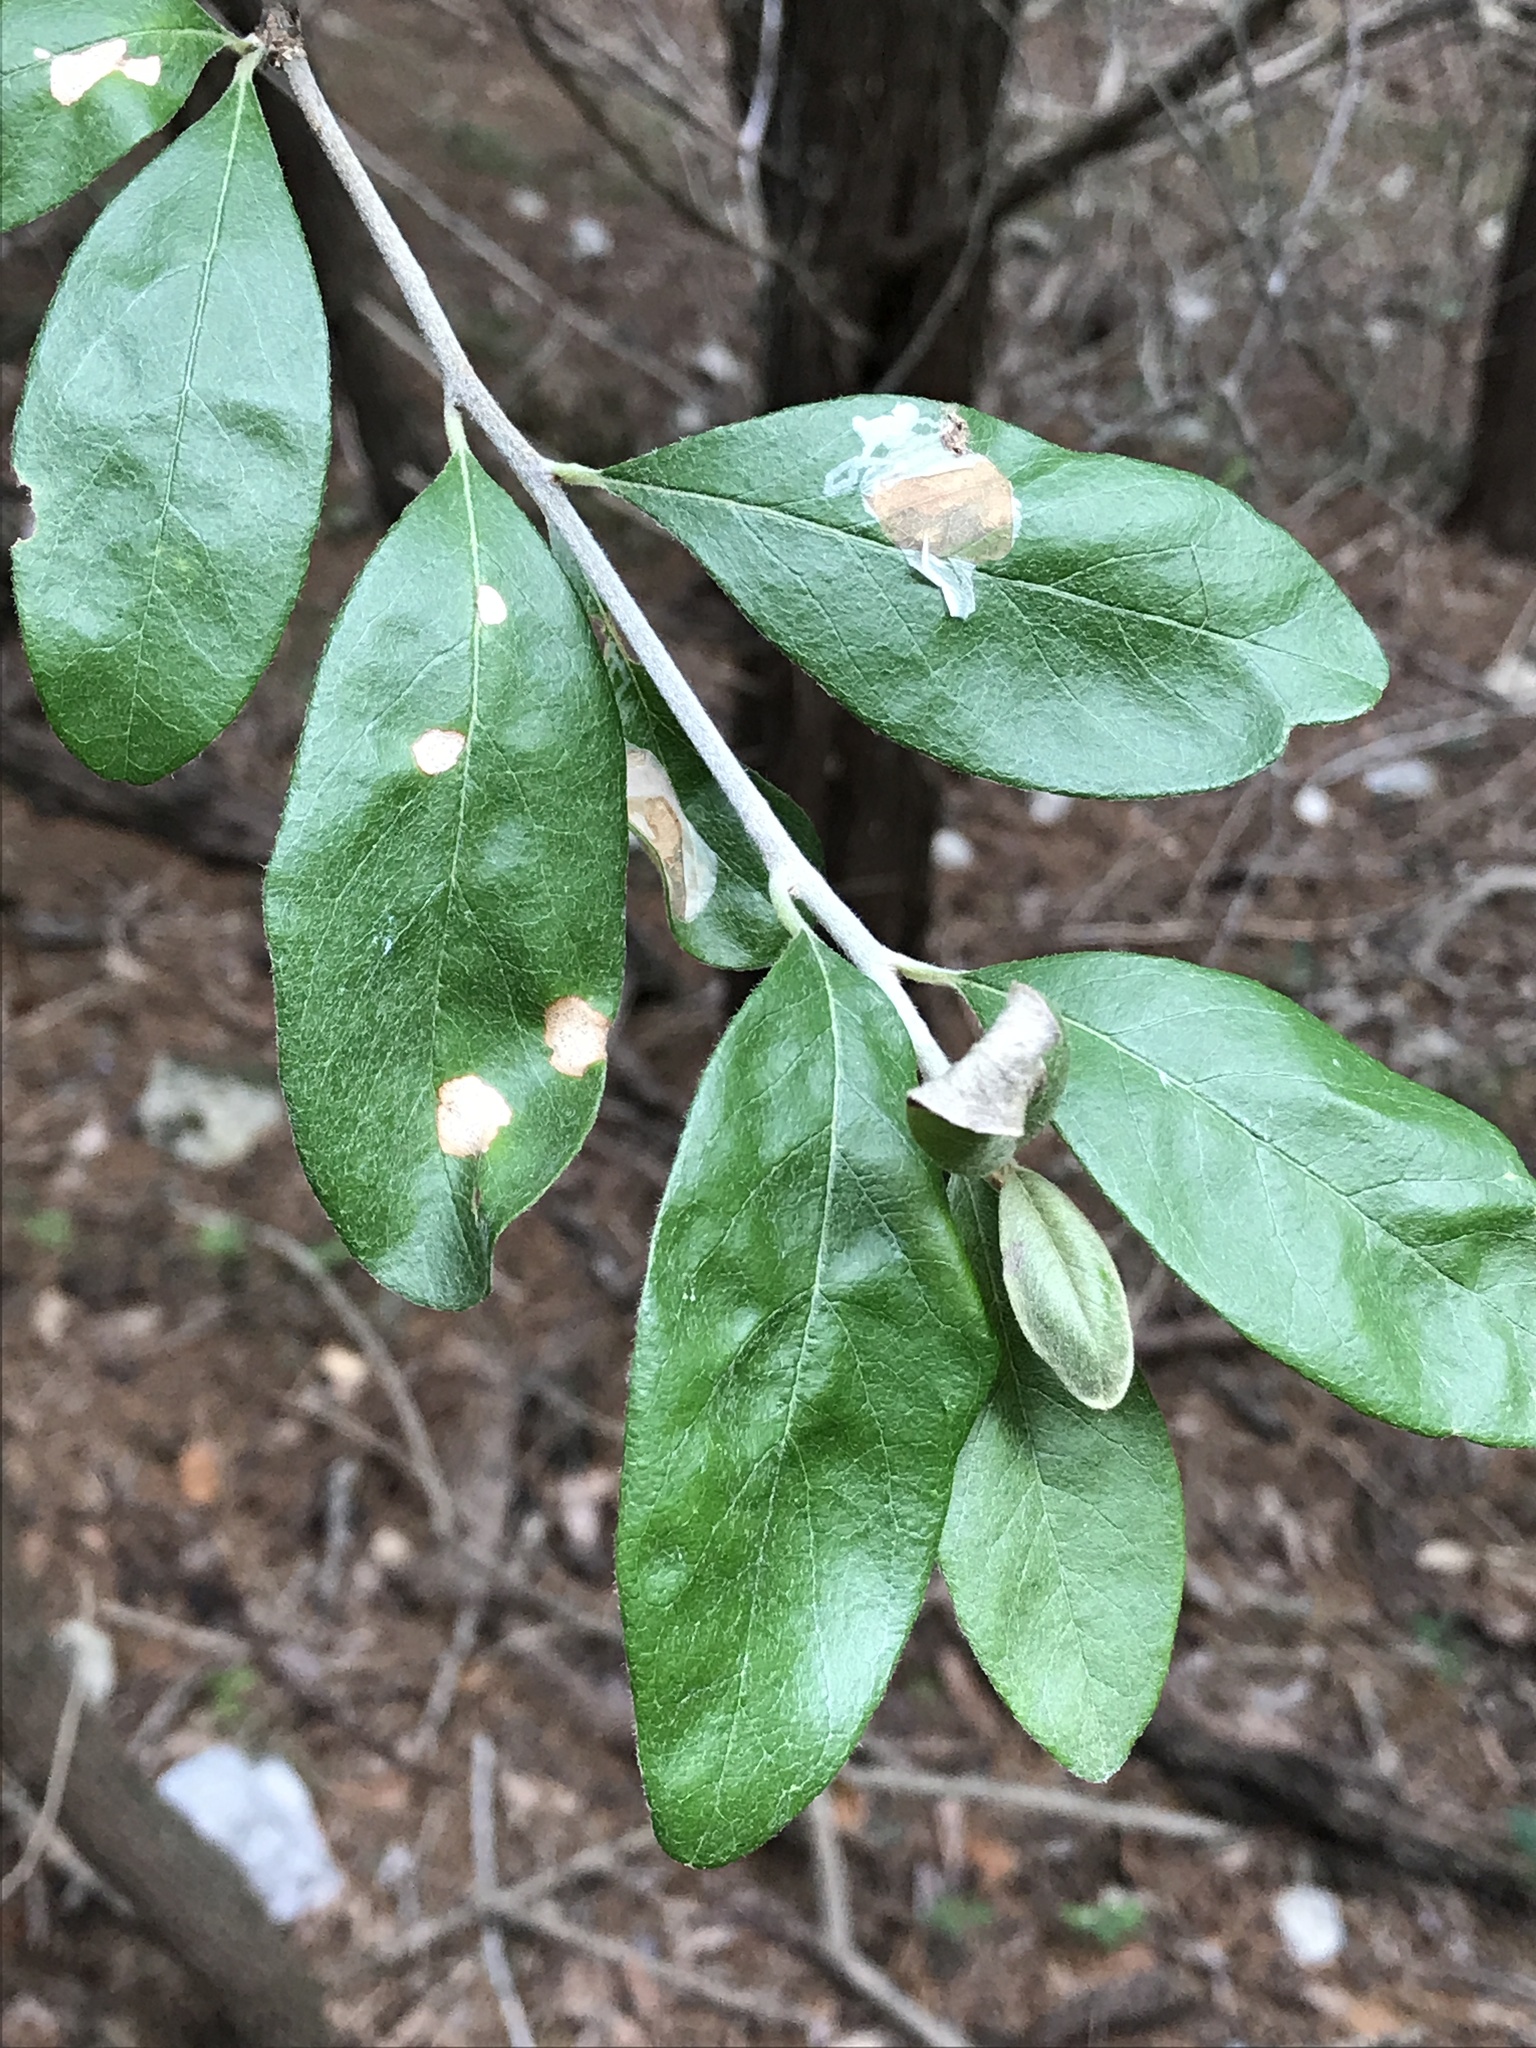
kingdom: Plantae
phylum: Tracheophyta
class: Magnoliopsida
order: Ericales
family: Sapotaceae
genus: Sideroxylon
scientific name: Sideroxylon lanuginosum
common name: Chittamwood
